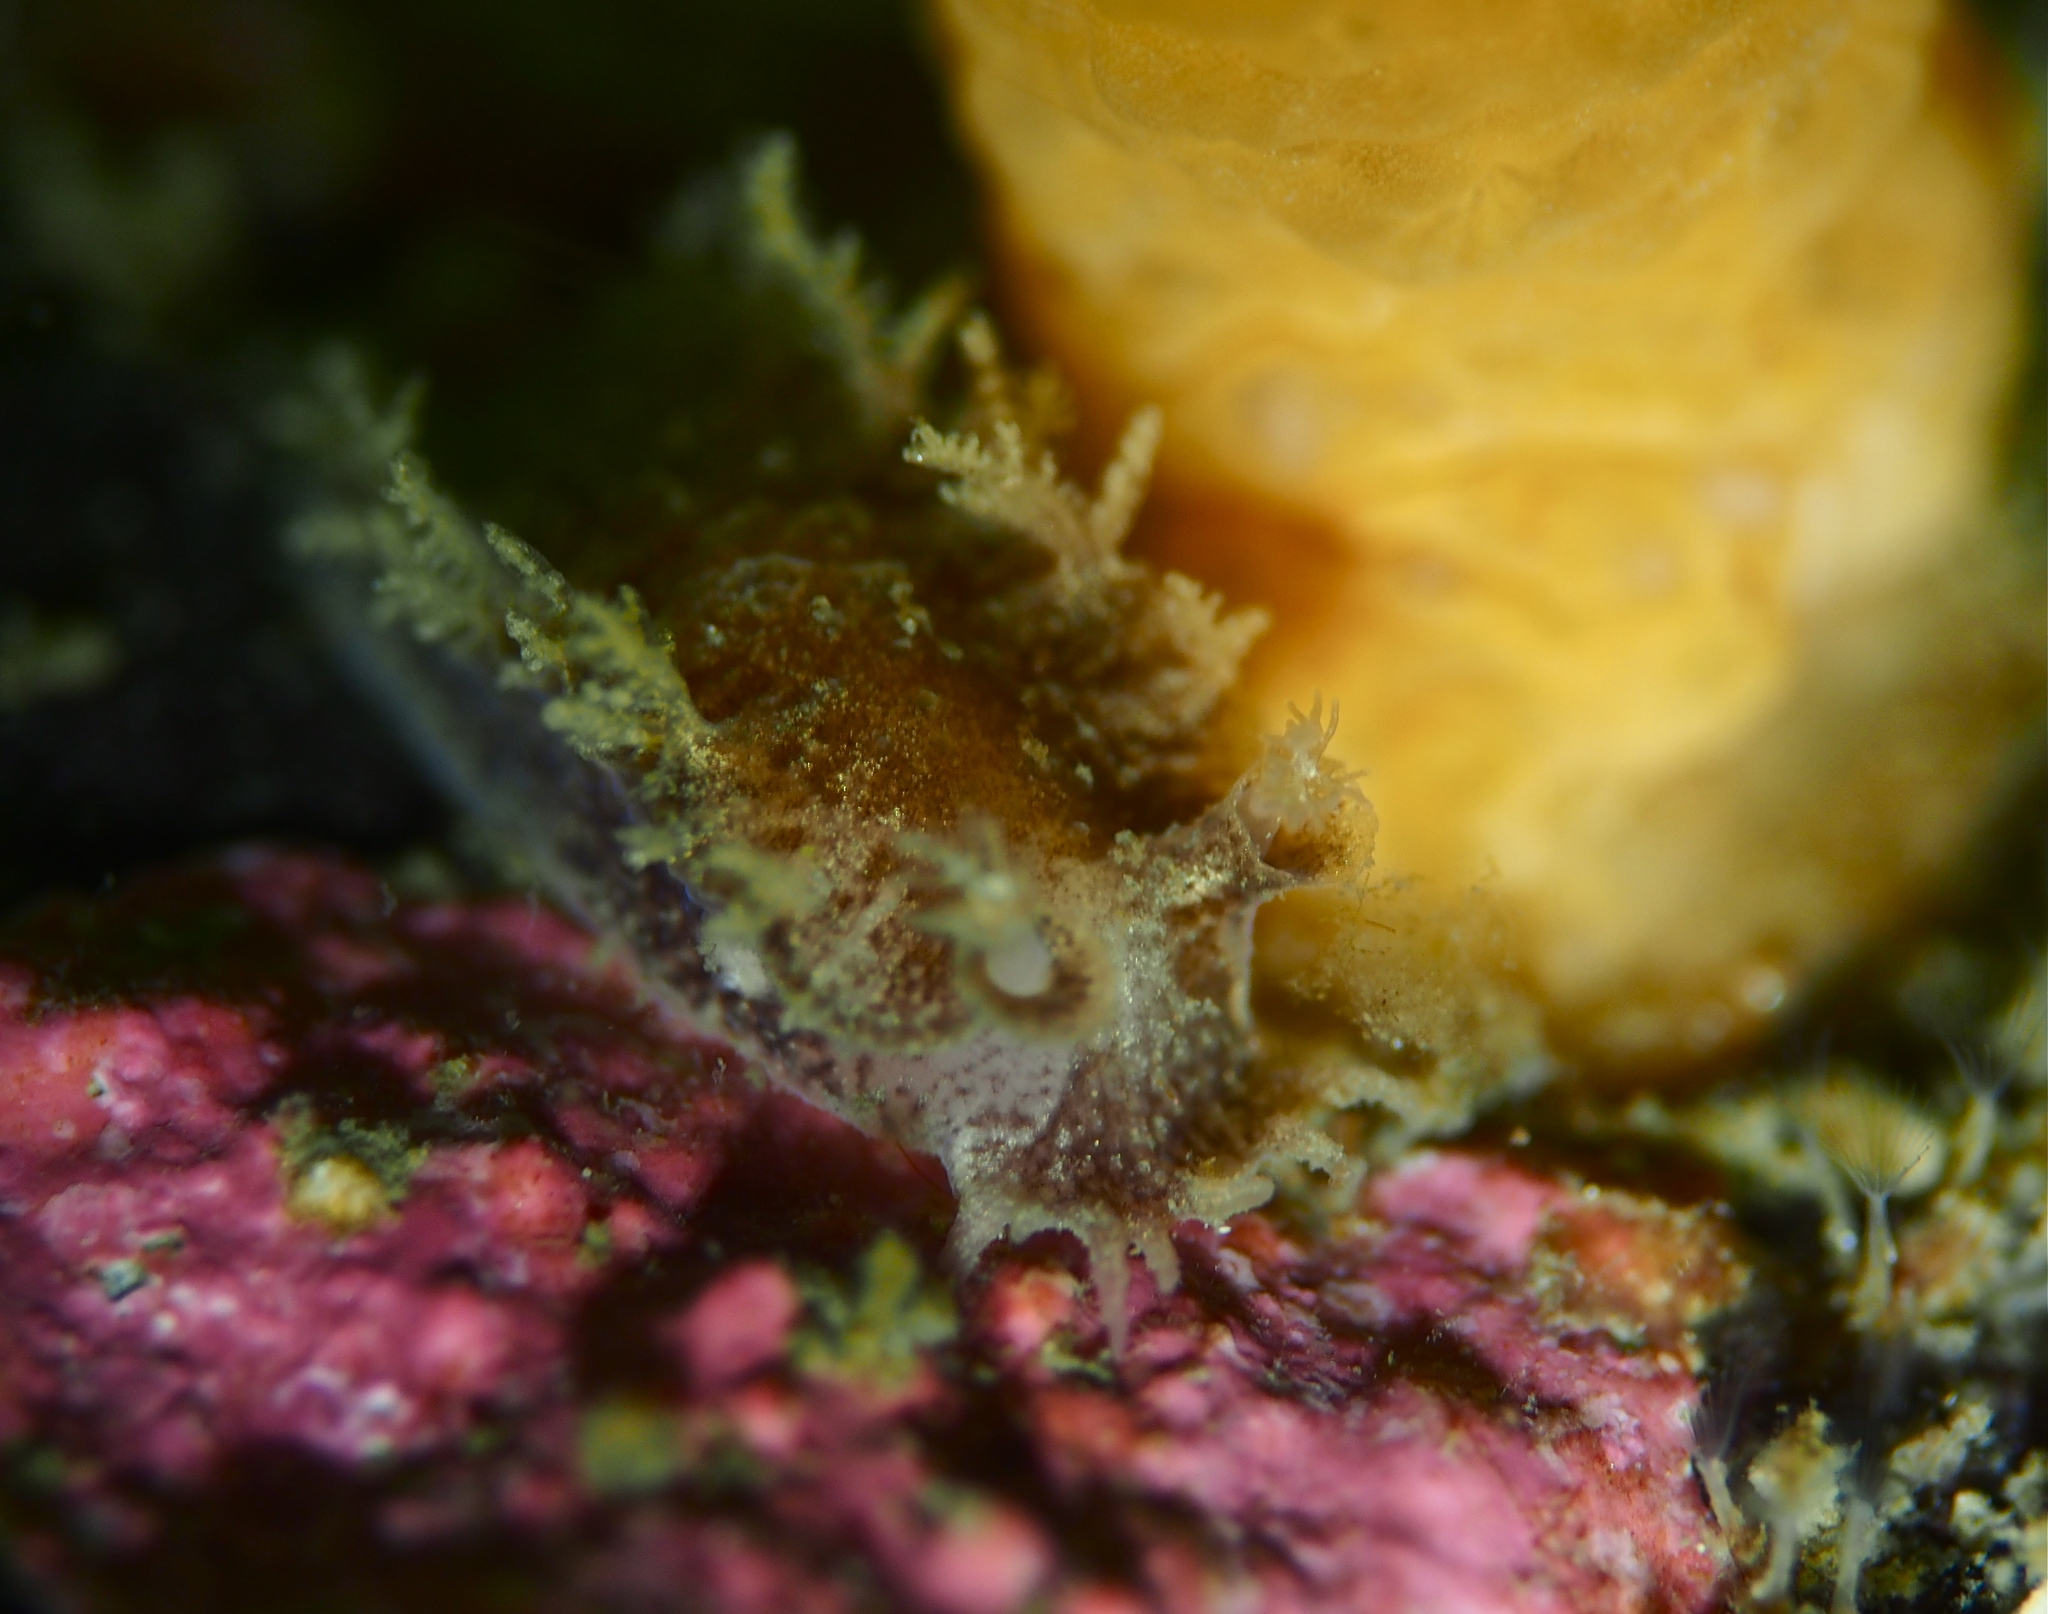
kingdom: Animalia
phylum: Mollusca
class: Gastropoda
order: Nudibranchia
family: Tritoniidae
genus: Duvaucelia
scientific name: Duvaucelia plebeia
